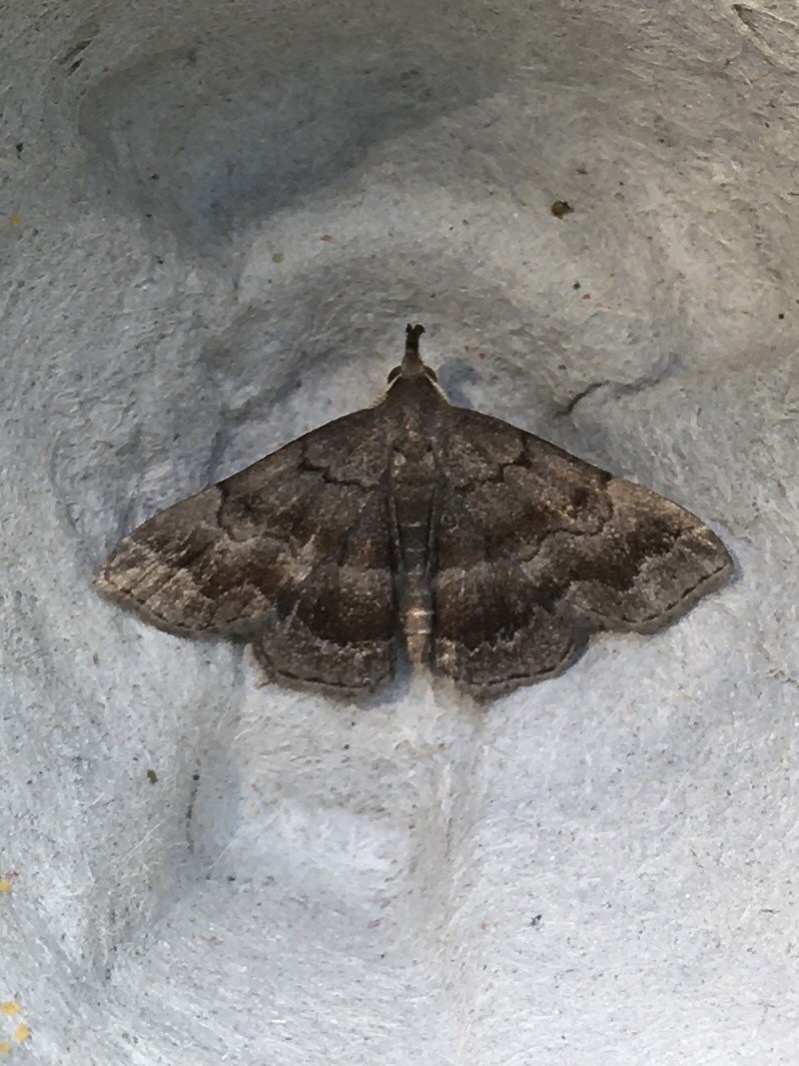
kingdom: Animalia
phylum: Arthropoda
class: Insecta
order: Lepidoptera
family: Erebidae
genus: Phalaenostola
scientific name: Phalaenostola larentioides
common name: Black-banded owlet
